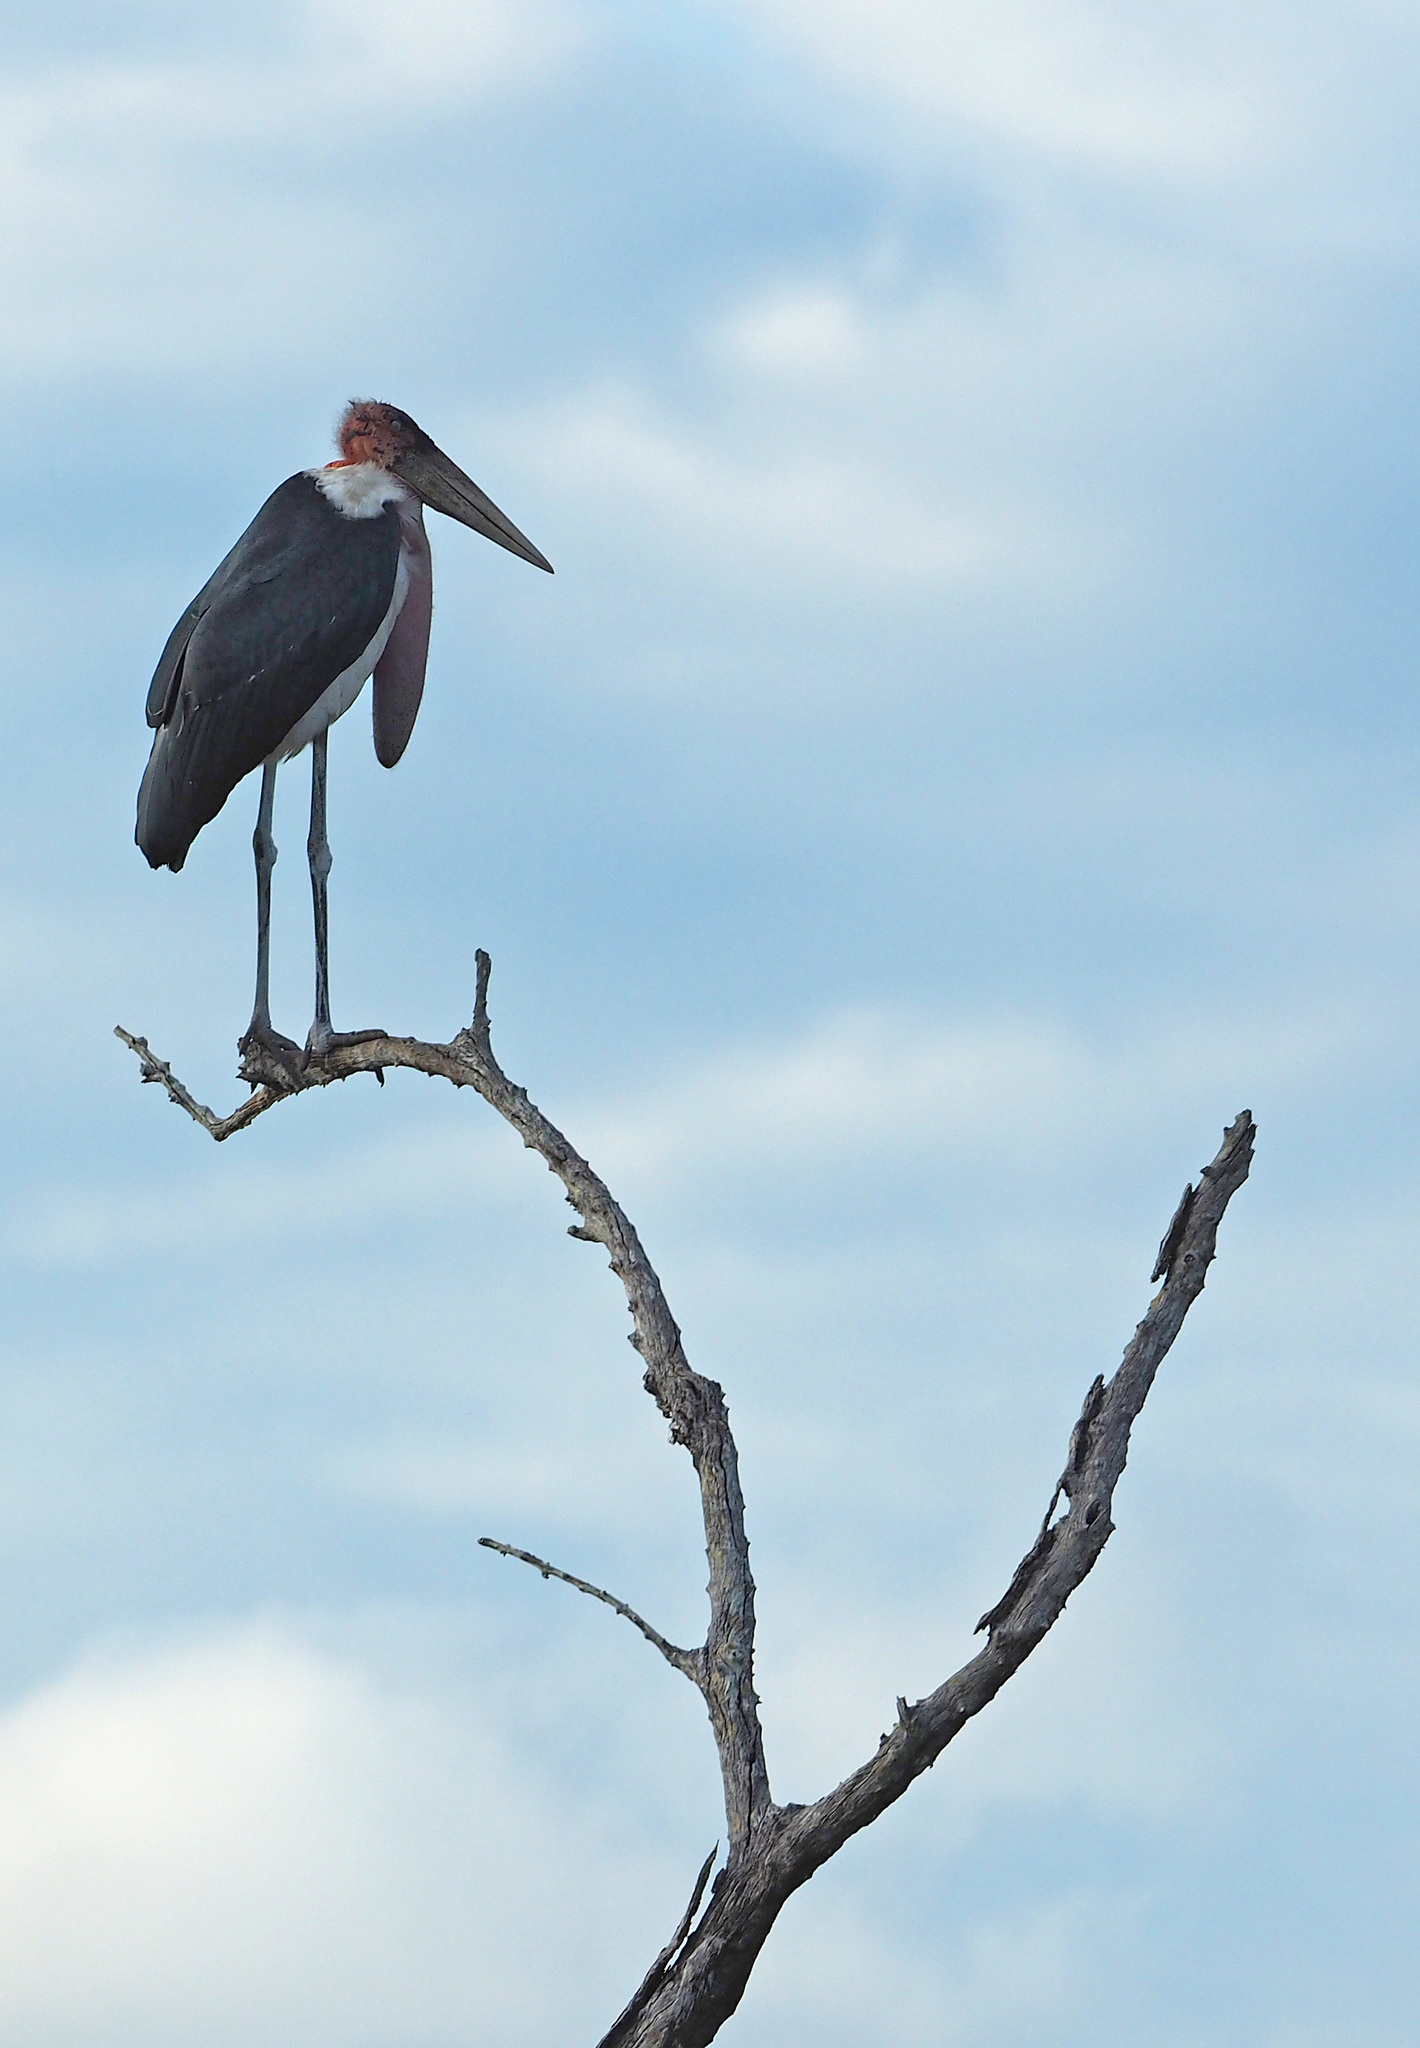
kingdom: Animalia
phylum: Chordata
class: Aves
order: Ciconiiformes
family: Ciconiidae
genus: Leptoptilos
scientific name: Leptoptilos crumenifer
